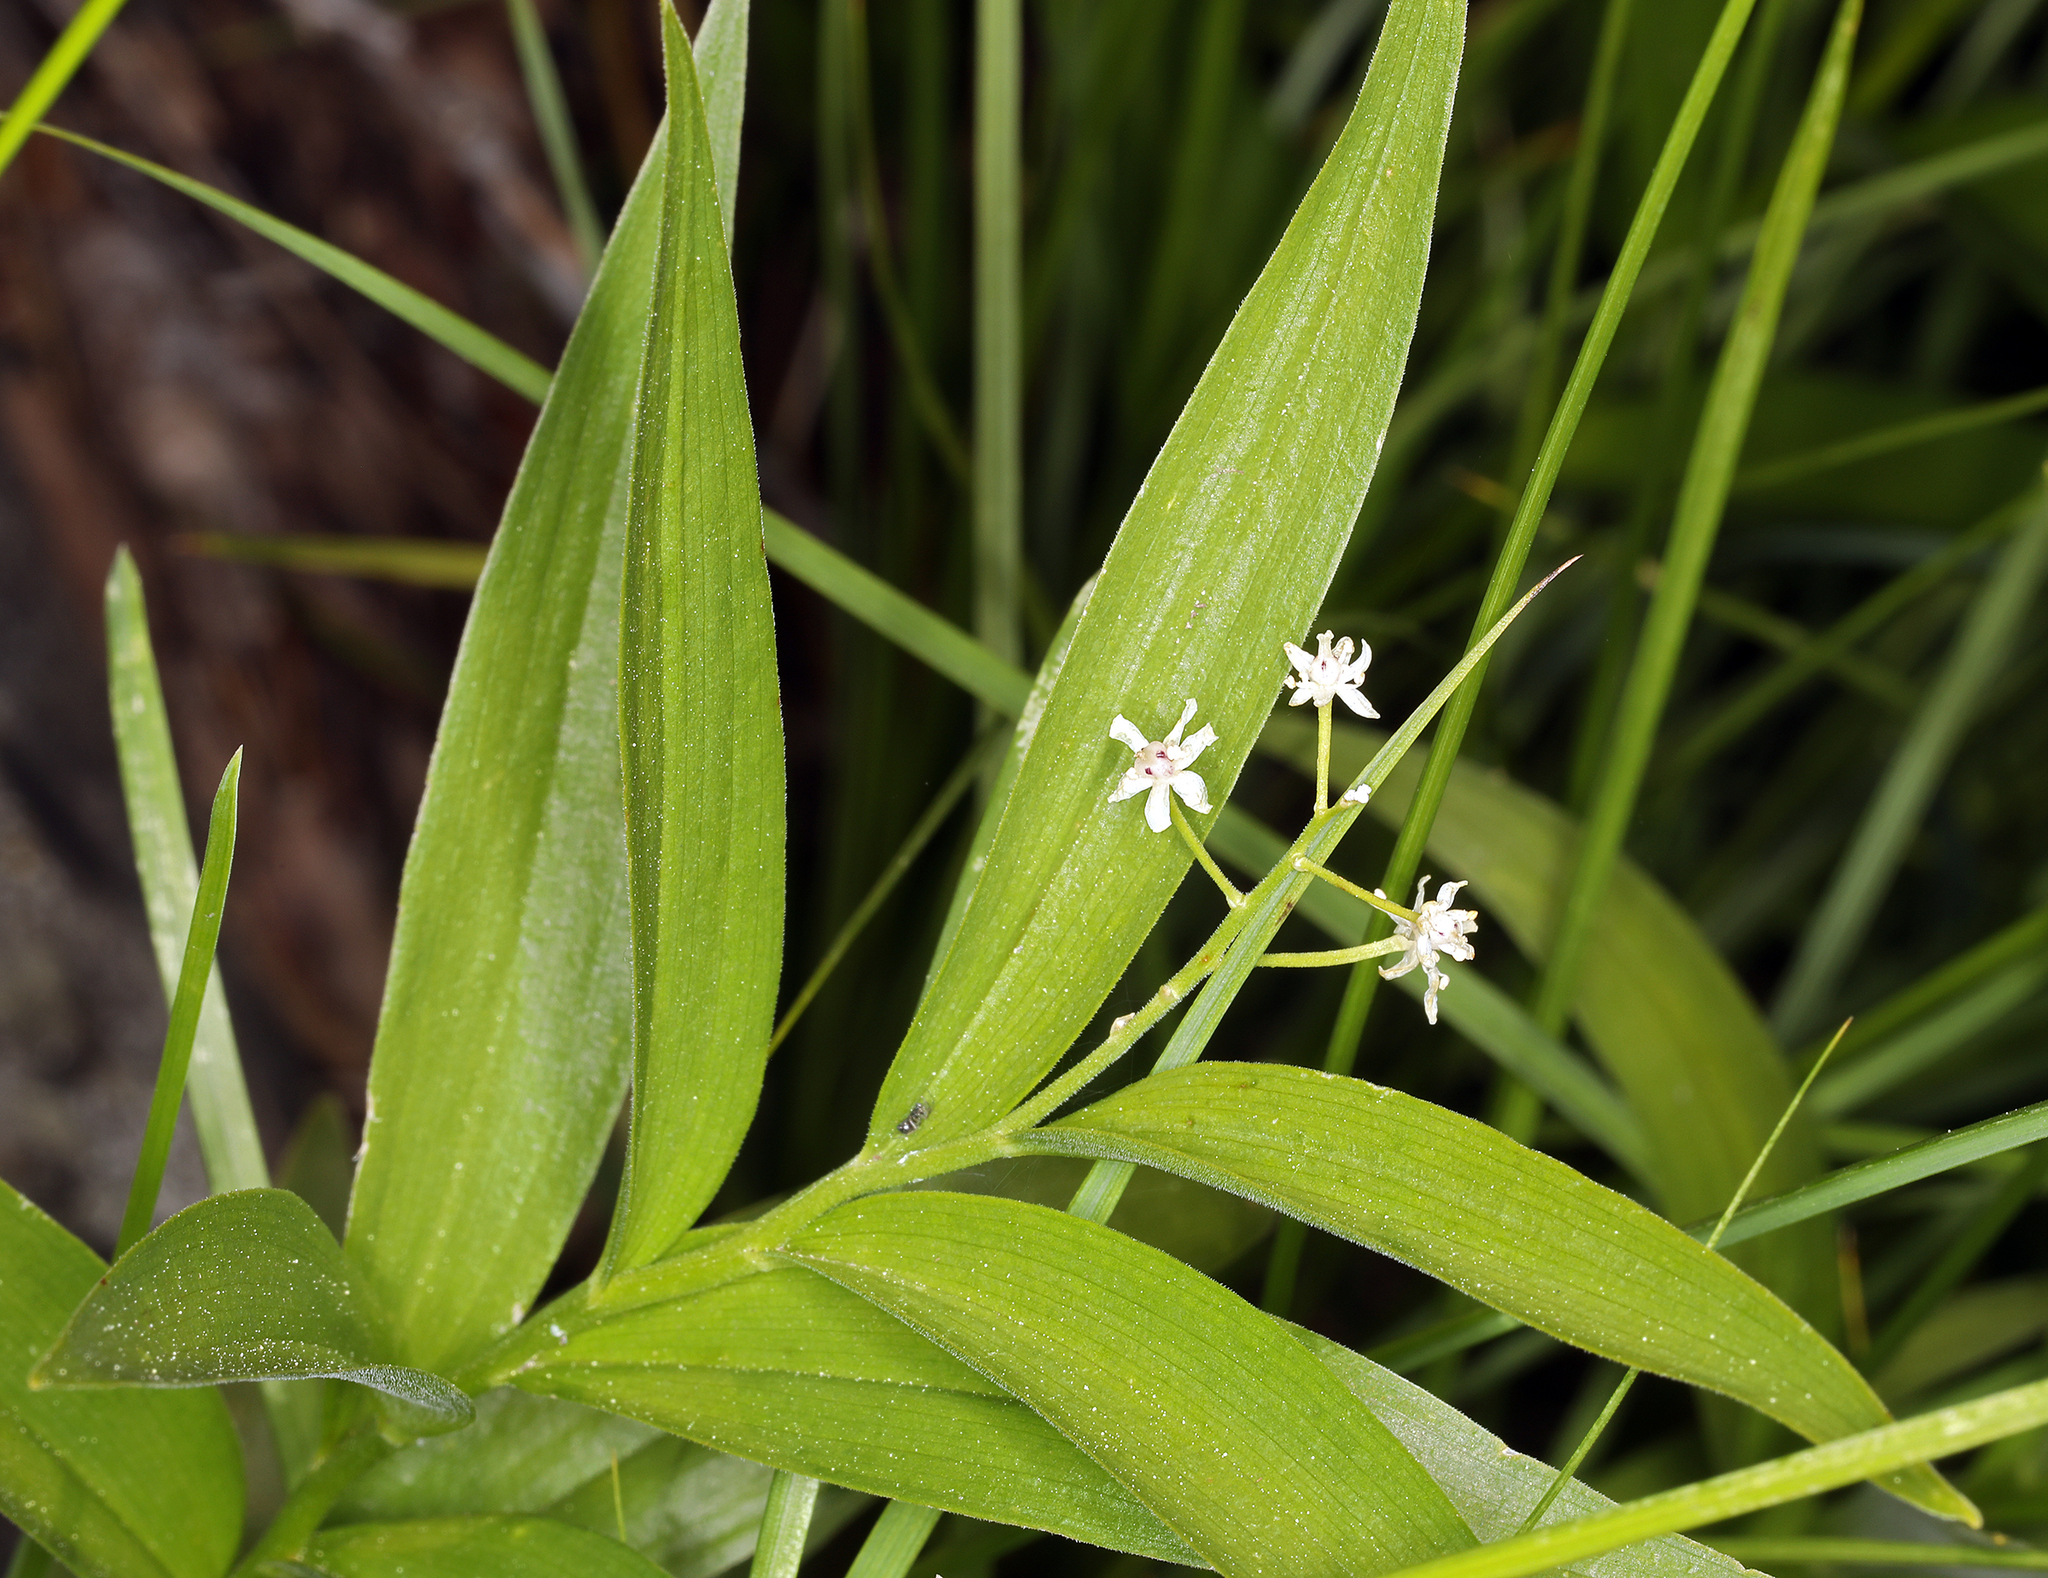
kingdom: Plantae
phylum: Tracheophyta
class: Liliopsida
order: Asparagales
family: Asparagaceae
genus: Maianthemum
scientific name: Maianthemum stellatum
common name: Little false solomon's seal
